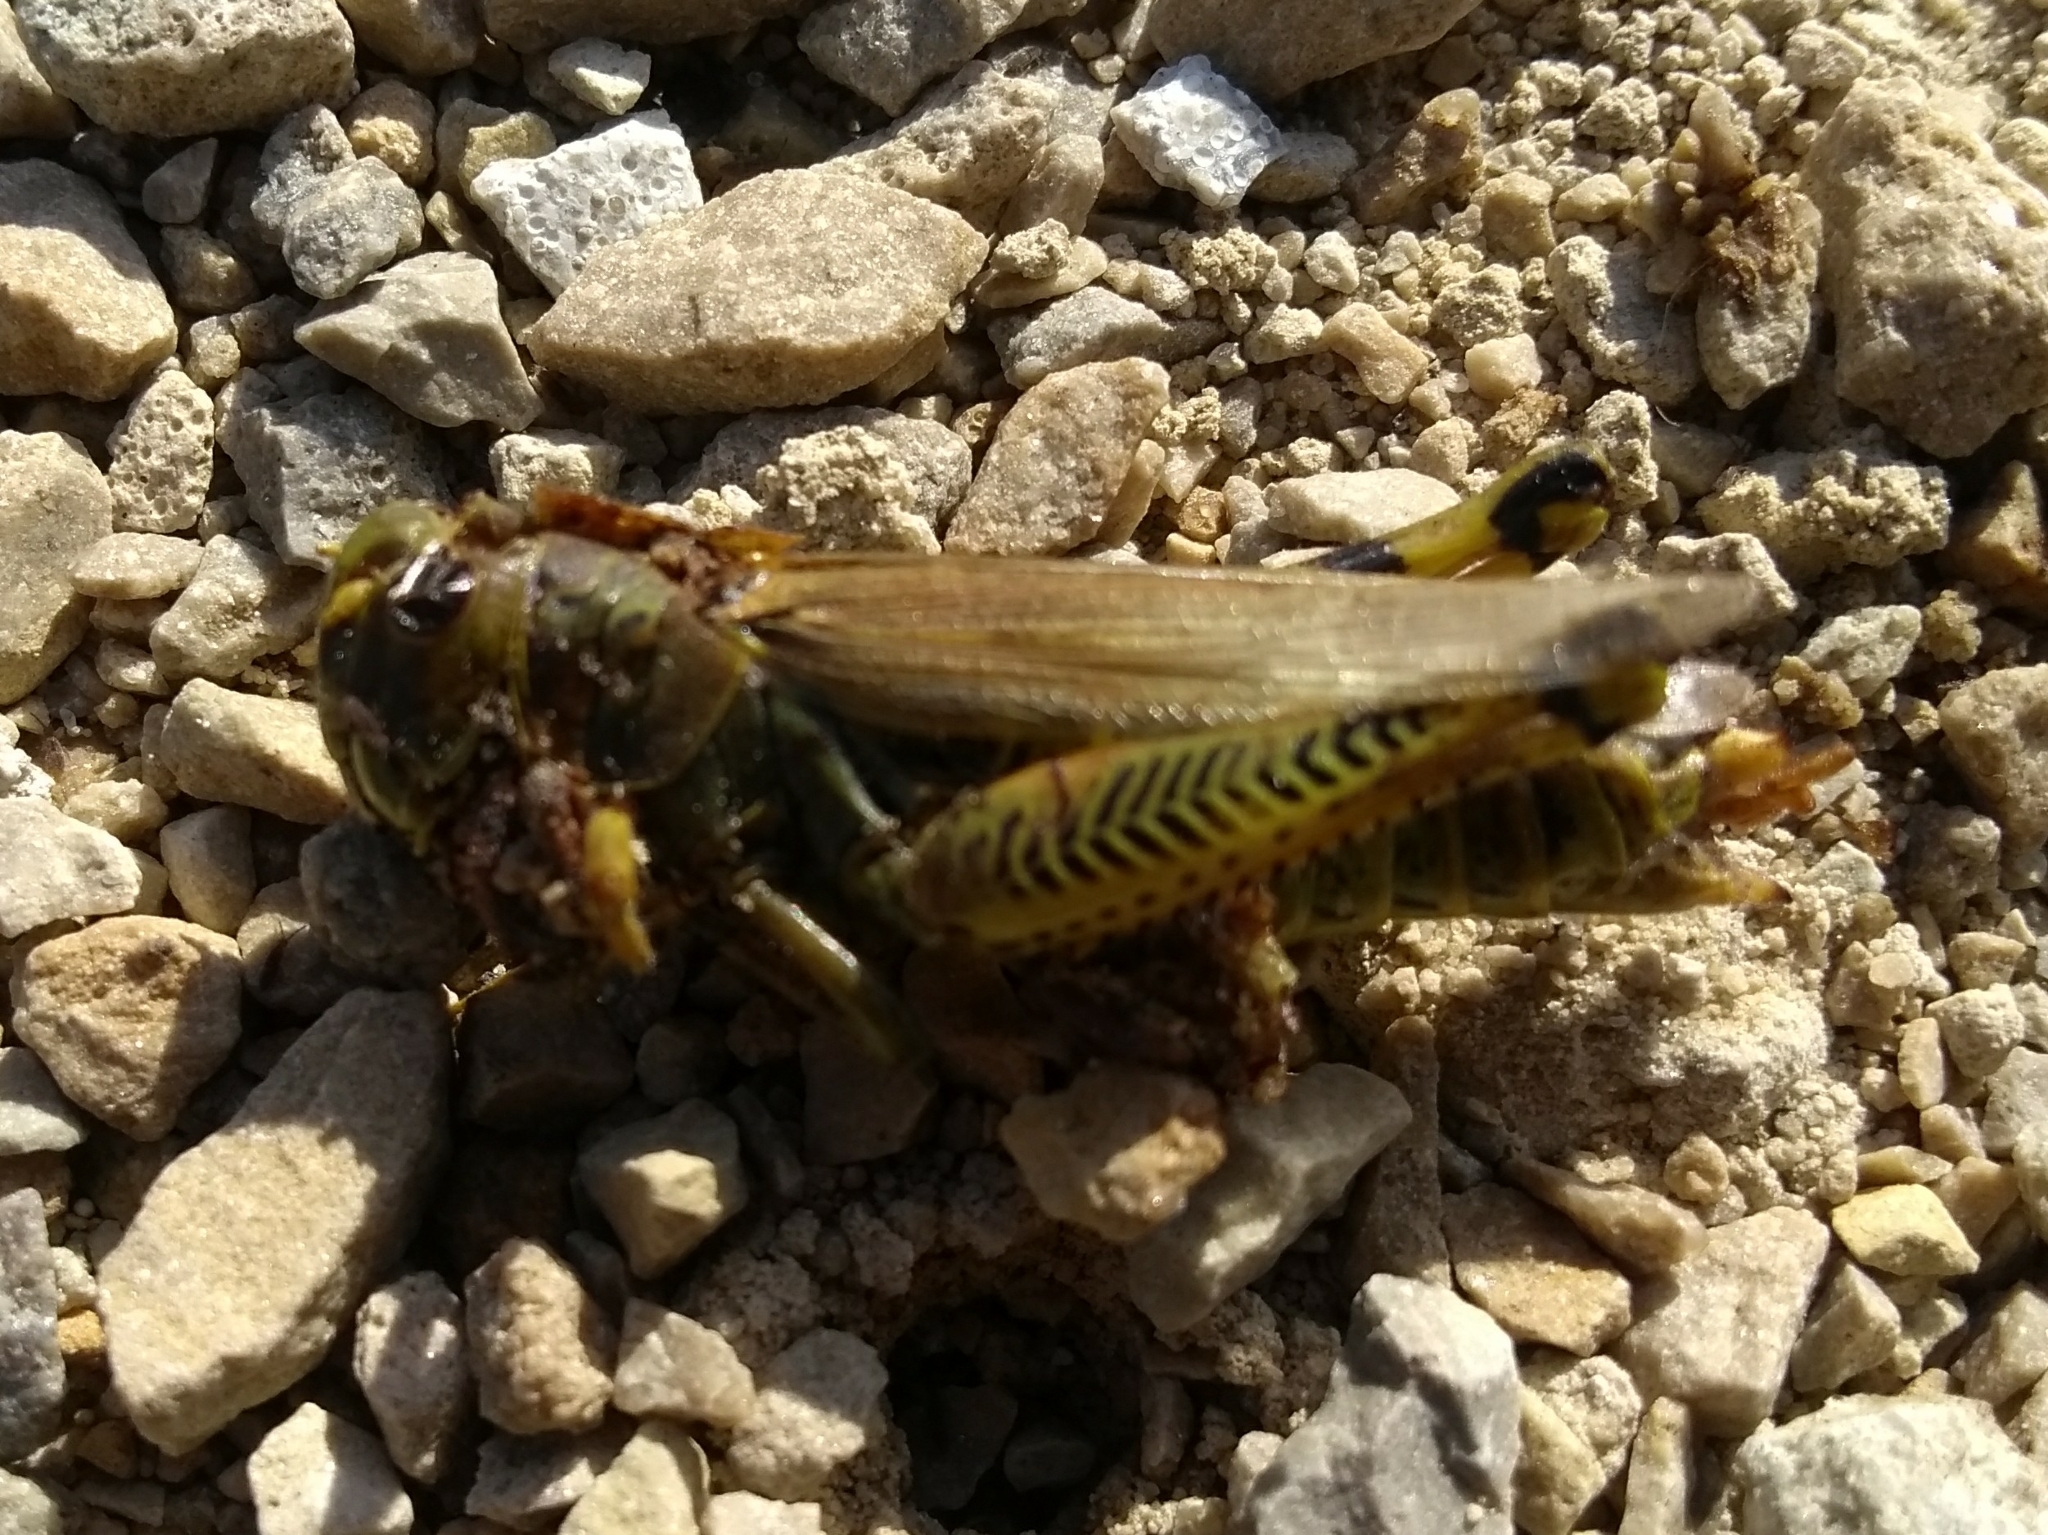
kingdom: Animalia
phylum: Arthropoda
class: Insecta
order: Orthoptera
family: Acrididae
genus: Melanoplus
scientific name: Melanoplus differentialis
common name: Differential grasshopper
